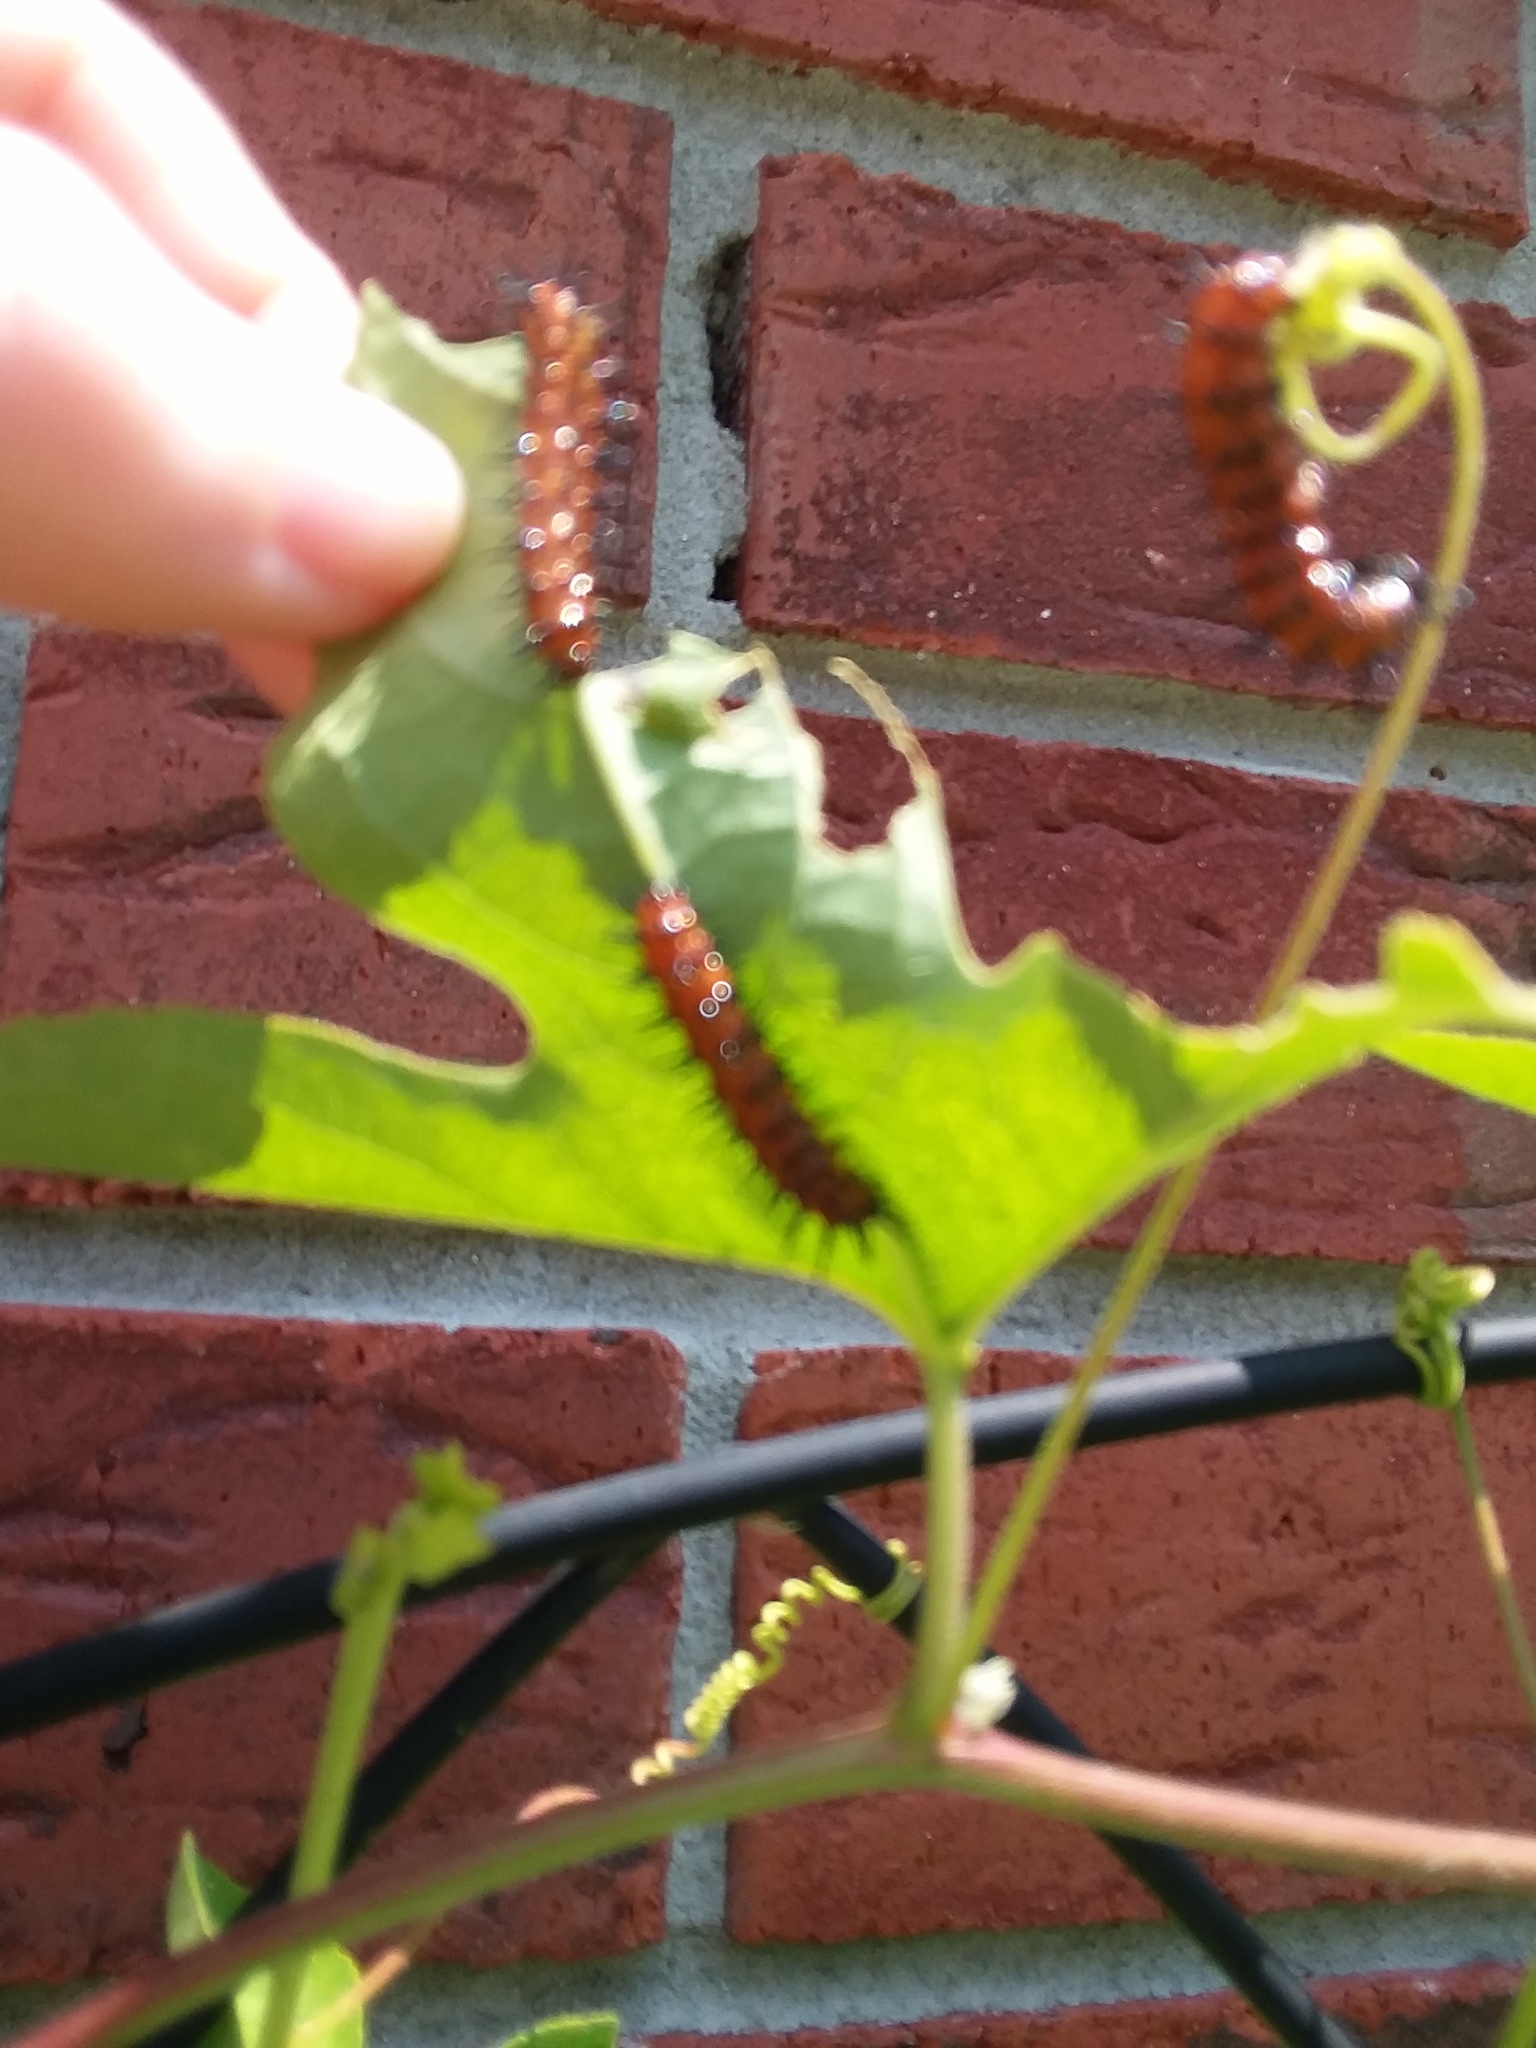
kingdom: Animalia
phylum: Arthropoda
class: Insecta
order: Lepidoptera
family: Nymphalidae
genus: Dione
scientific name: Dione vanillae
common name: Gulf fritillary
